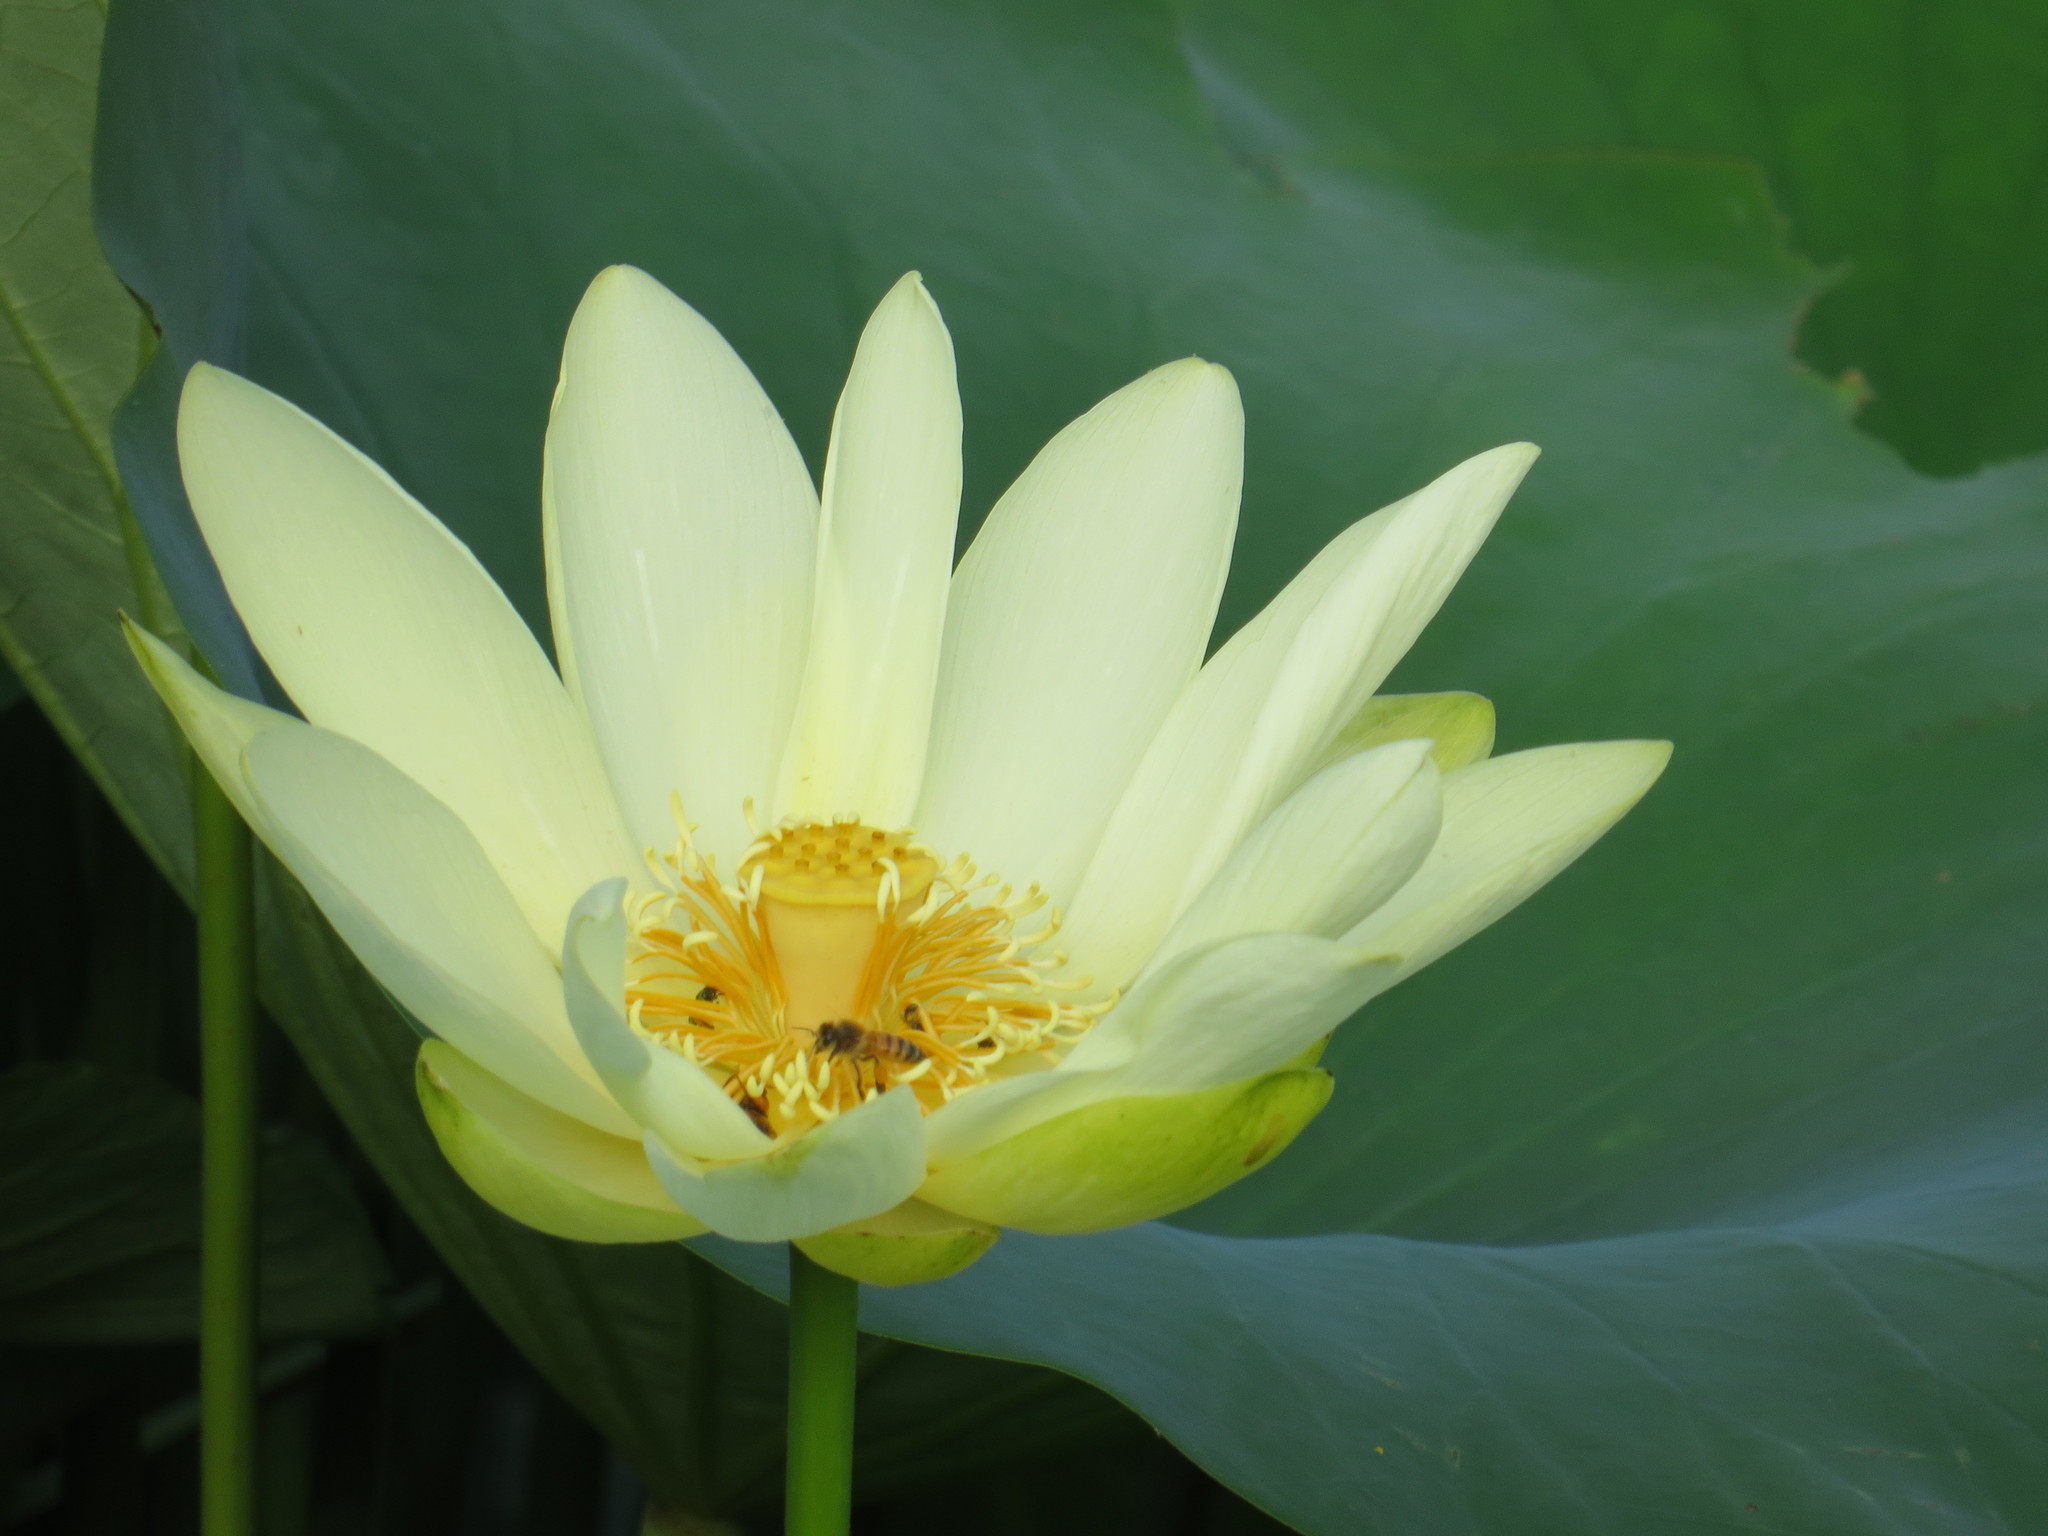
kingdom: Plantae
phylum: Tracheophyta
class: Magnoliopsida
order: Proteales
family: Nelumbonaceae
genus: Nelumbo
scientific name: Nelumbo lutea
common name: American lotus
